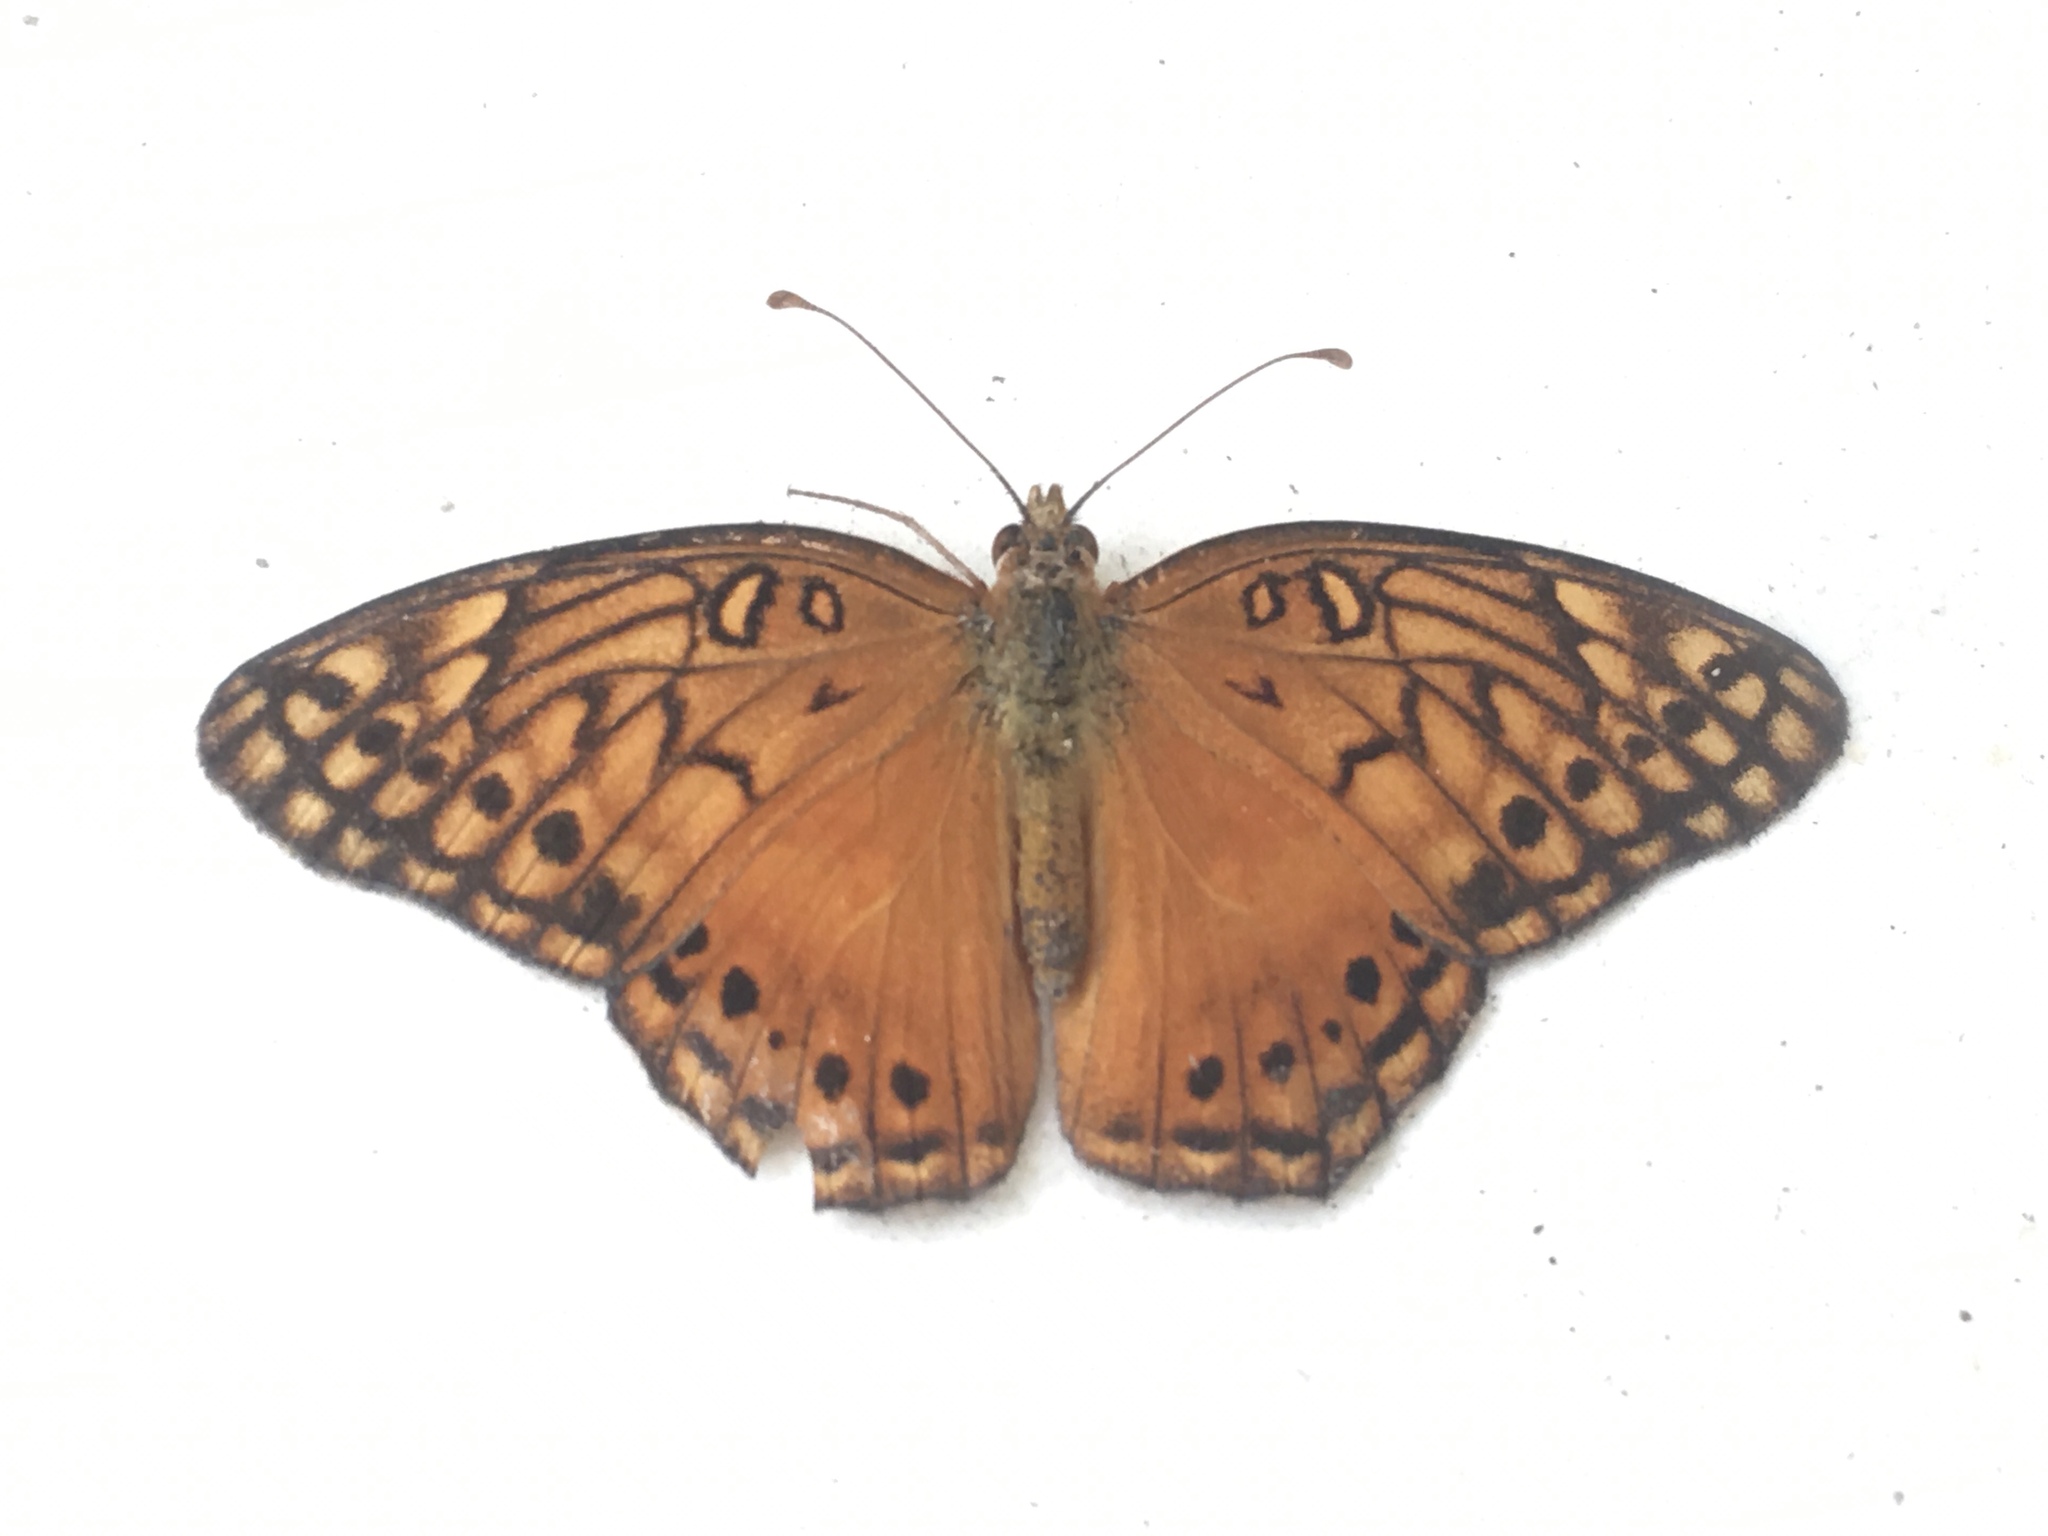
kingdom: Animalia
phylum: Arthropoda
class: Insecta
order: Lepidoptera
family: Nymphalidae
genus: Euptoieta
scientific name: Euptoieta hegesia
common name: Mexican fritillary
